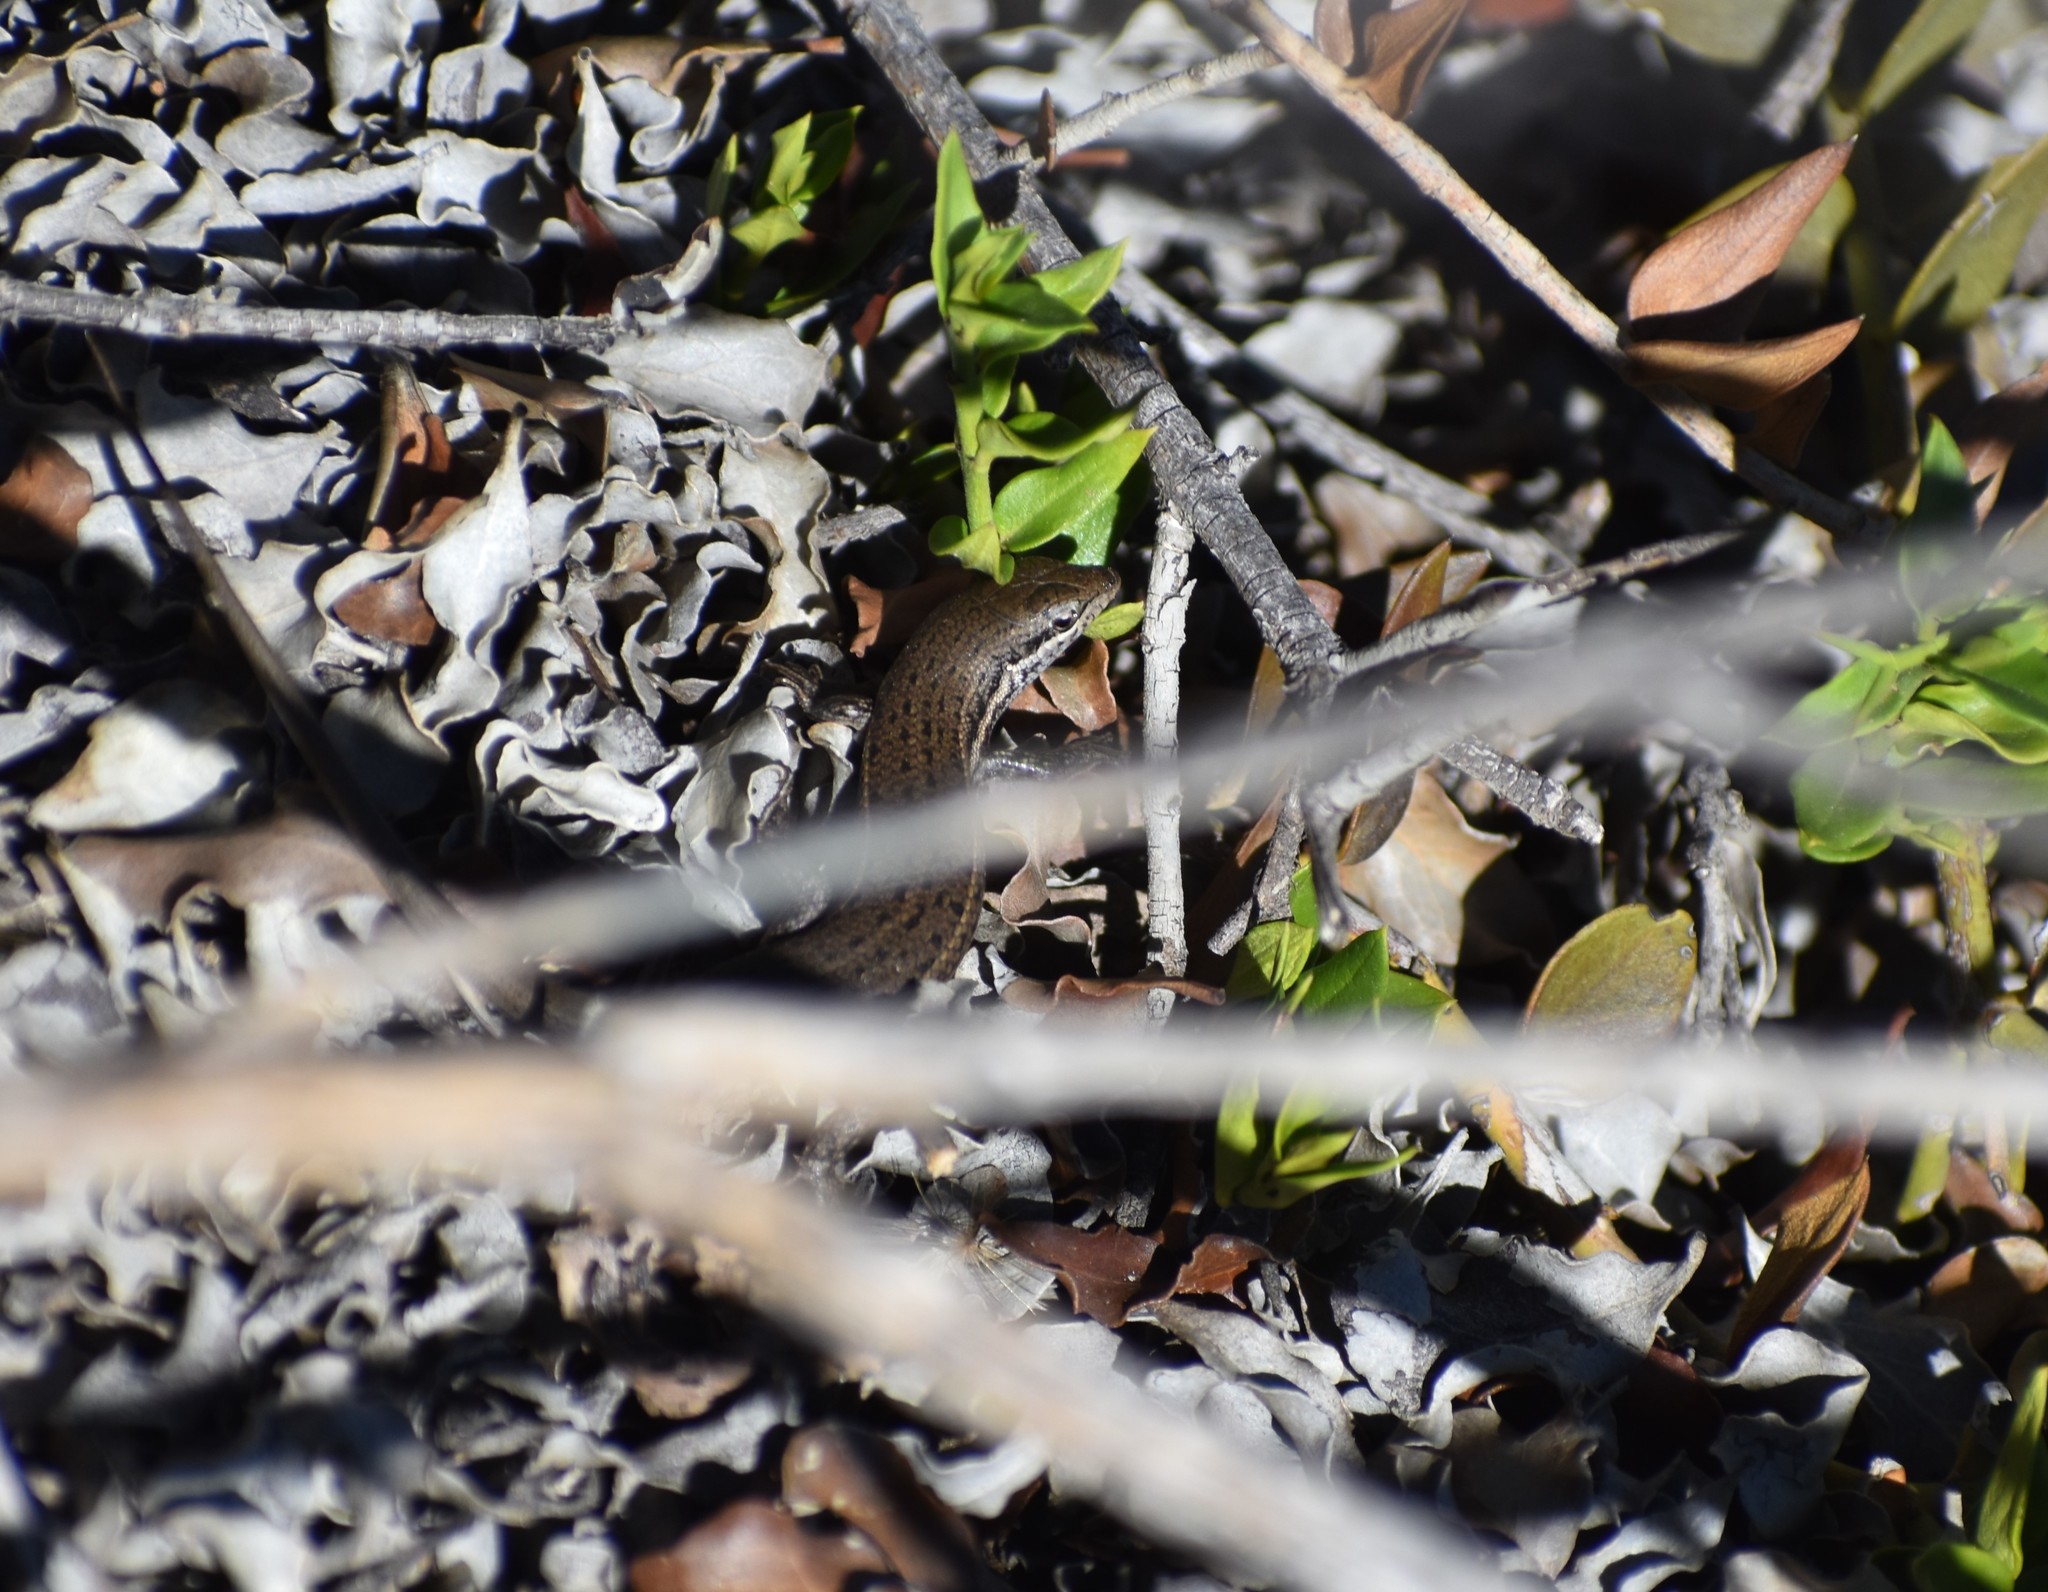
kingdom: Animalia
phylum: Chordata
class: Squamata
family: Scincidae
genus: Trachylepis
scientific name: Trachylepis variegata
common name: Variegated skink
